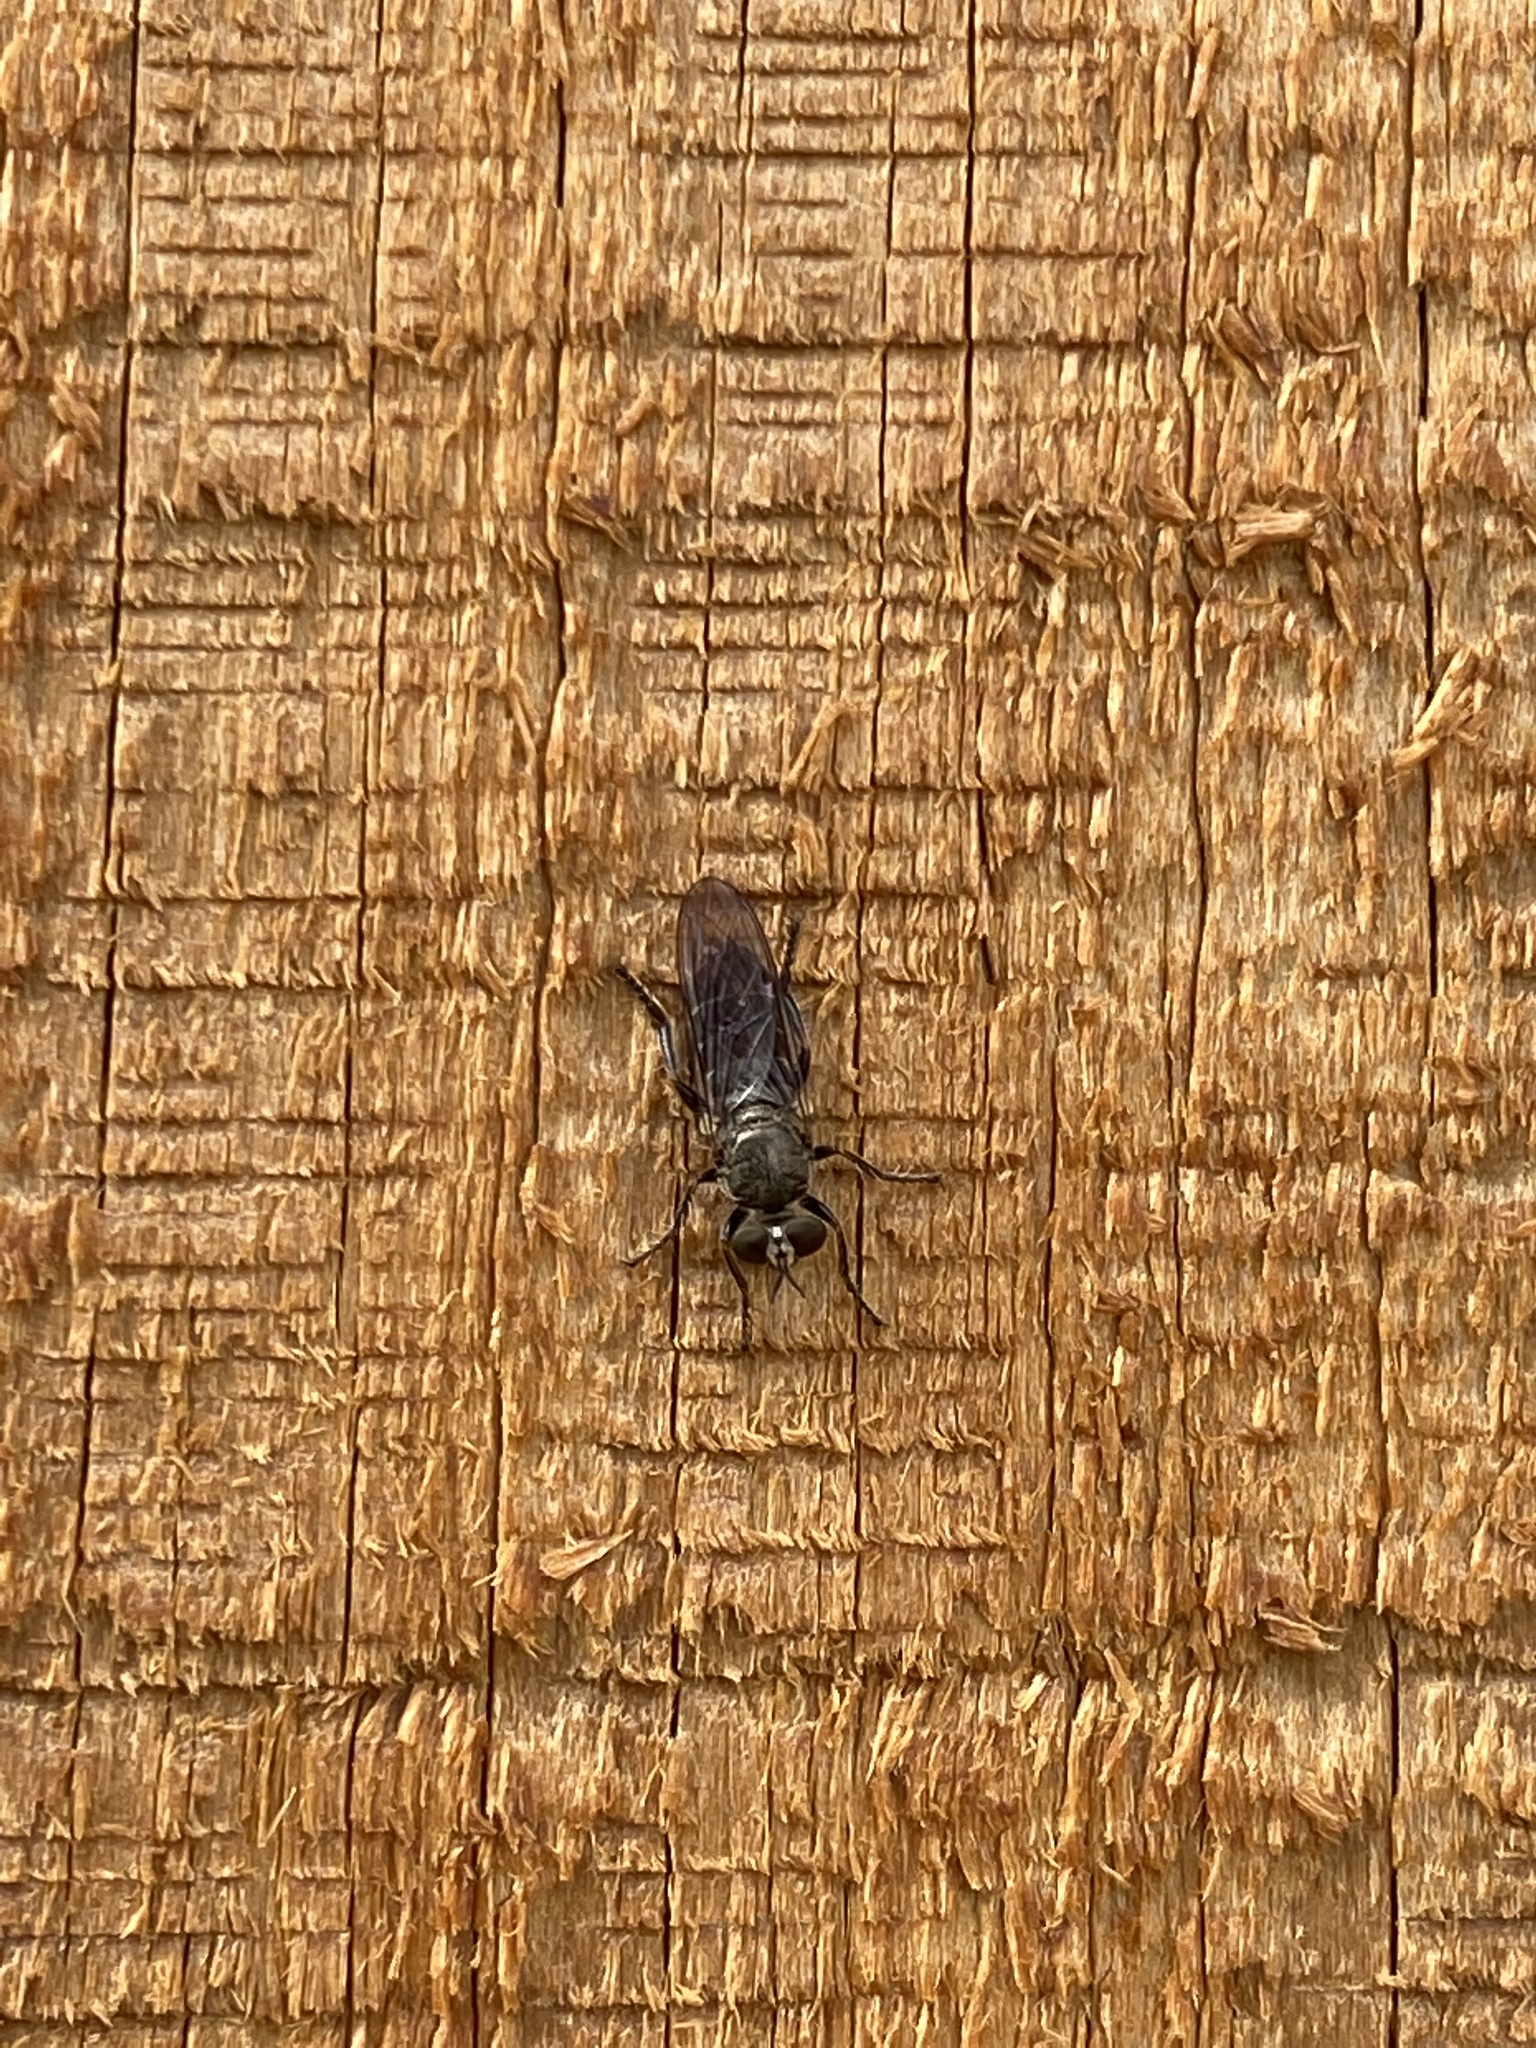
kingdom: Animalia
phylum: Arthropoda
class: Insecta
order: Diptera
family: Asilidae
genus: Atomosia
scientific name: Atomosia puella
